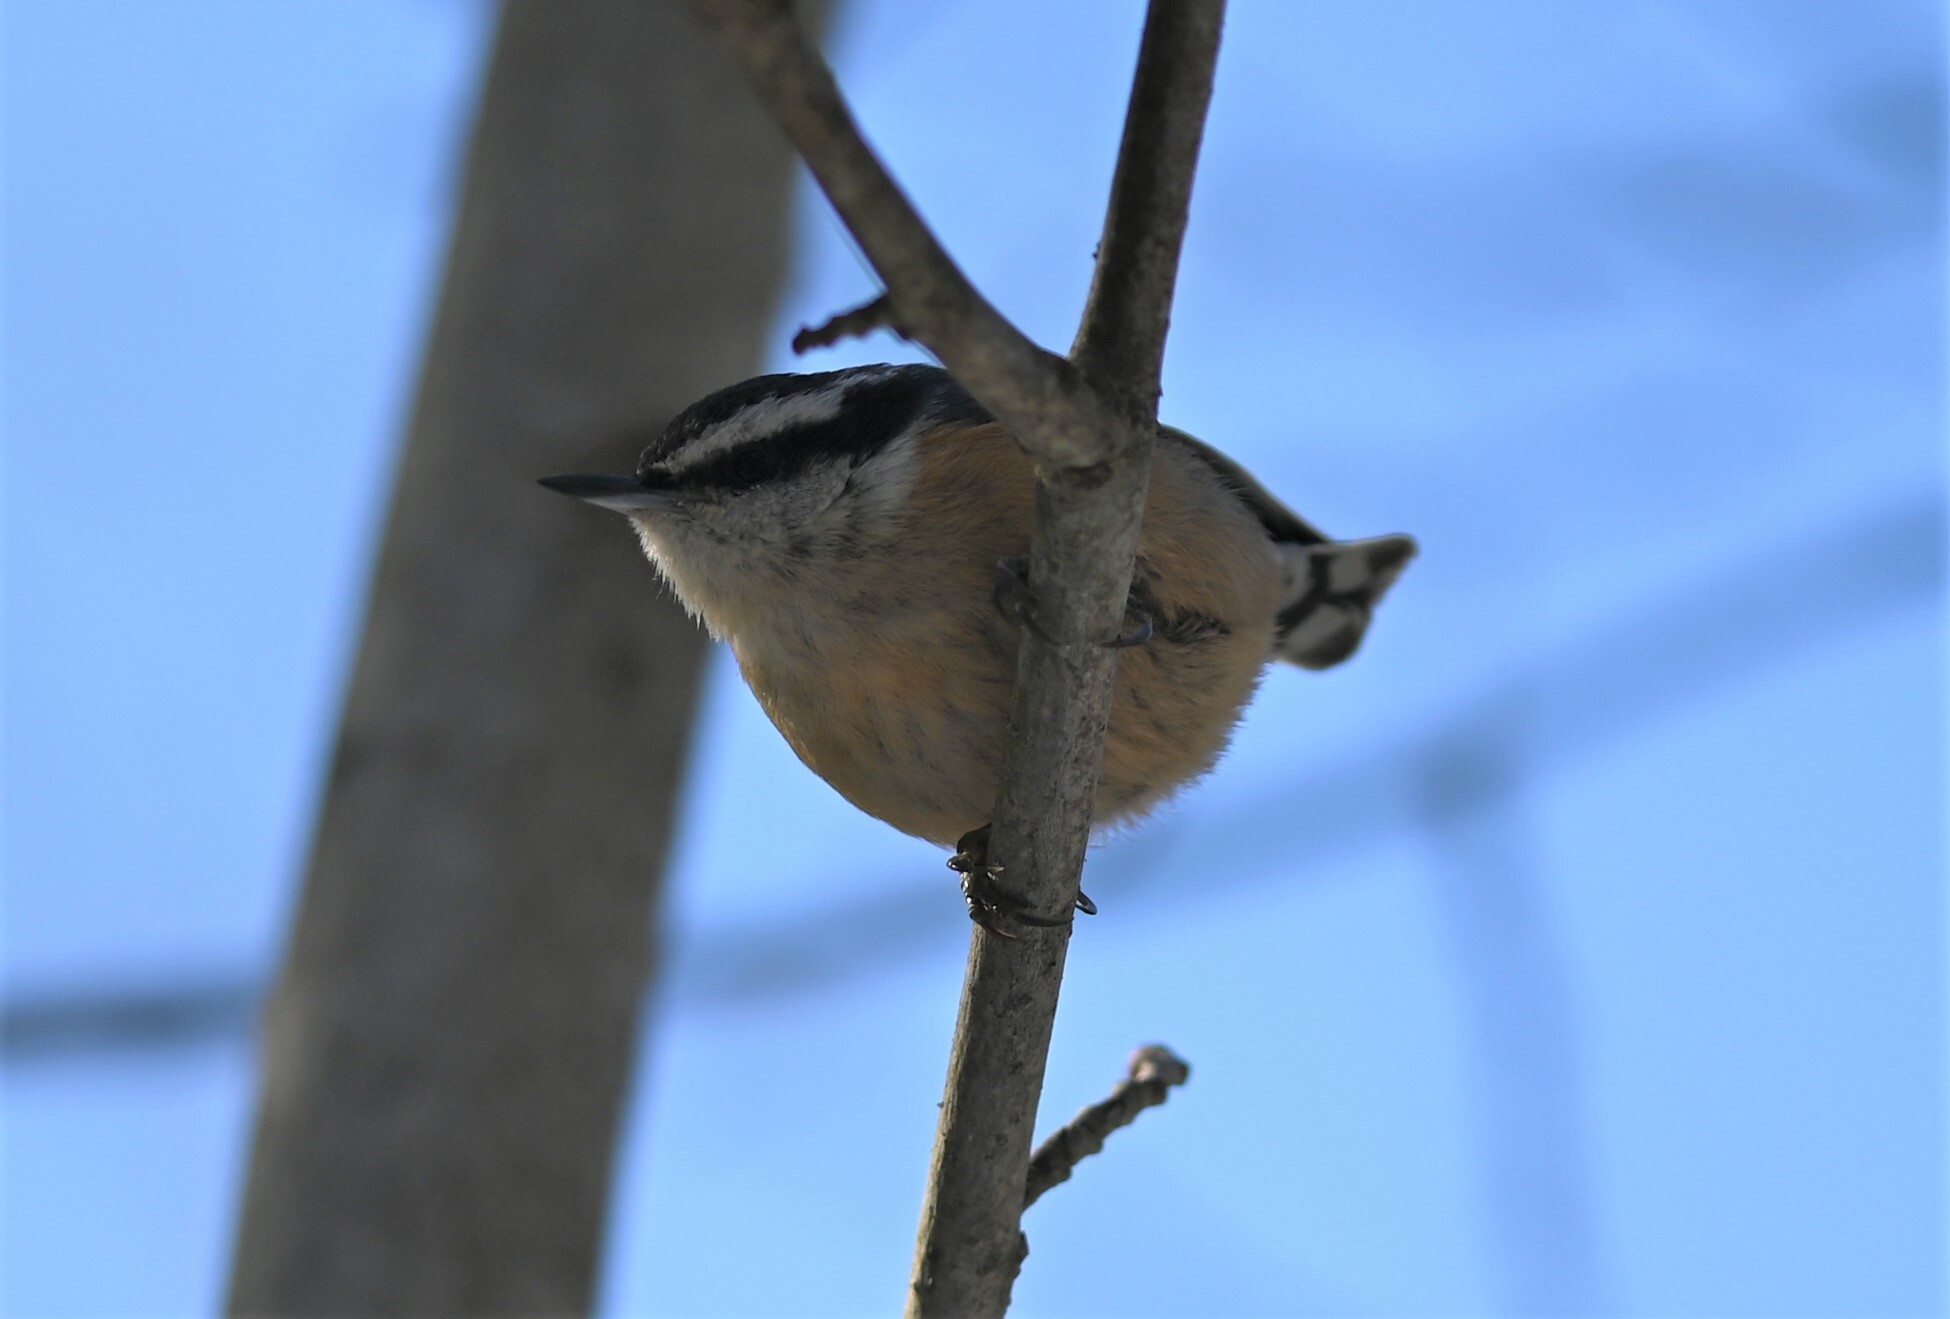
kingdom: Animalia
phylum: Chordata
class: Aves
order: Passeriformes
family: Sittidae
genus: Sitta
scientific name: Sitta canadensis
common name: Red-breasted nuthatch
